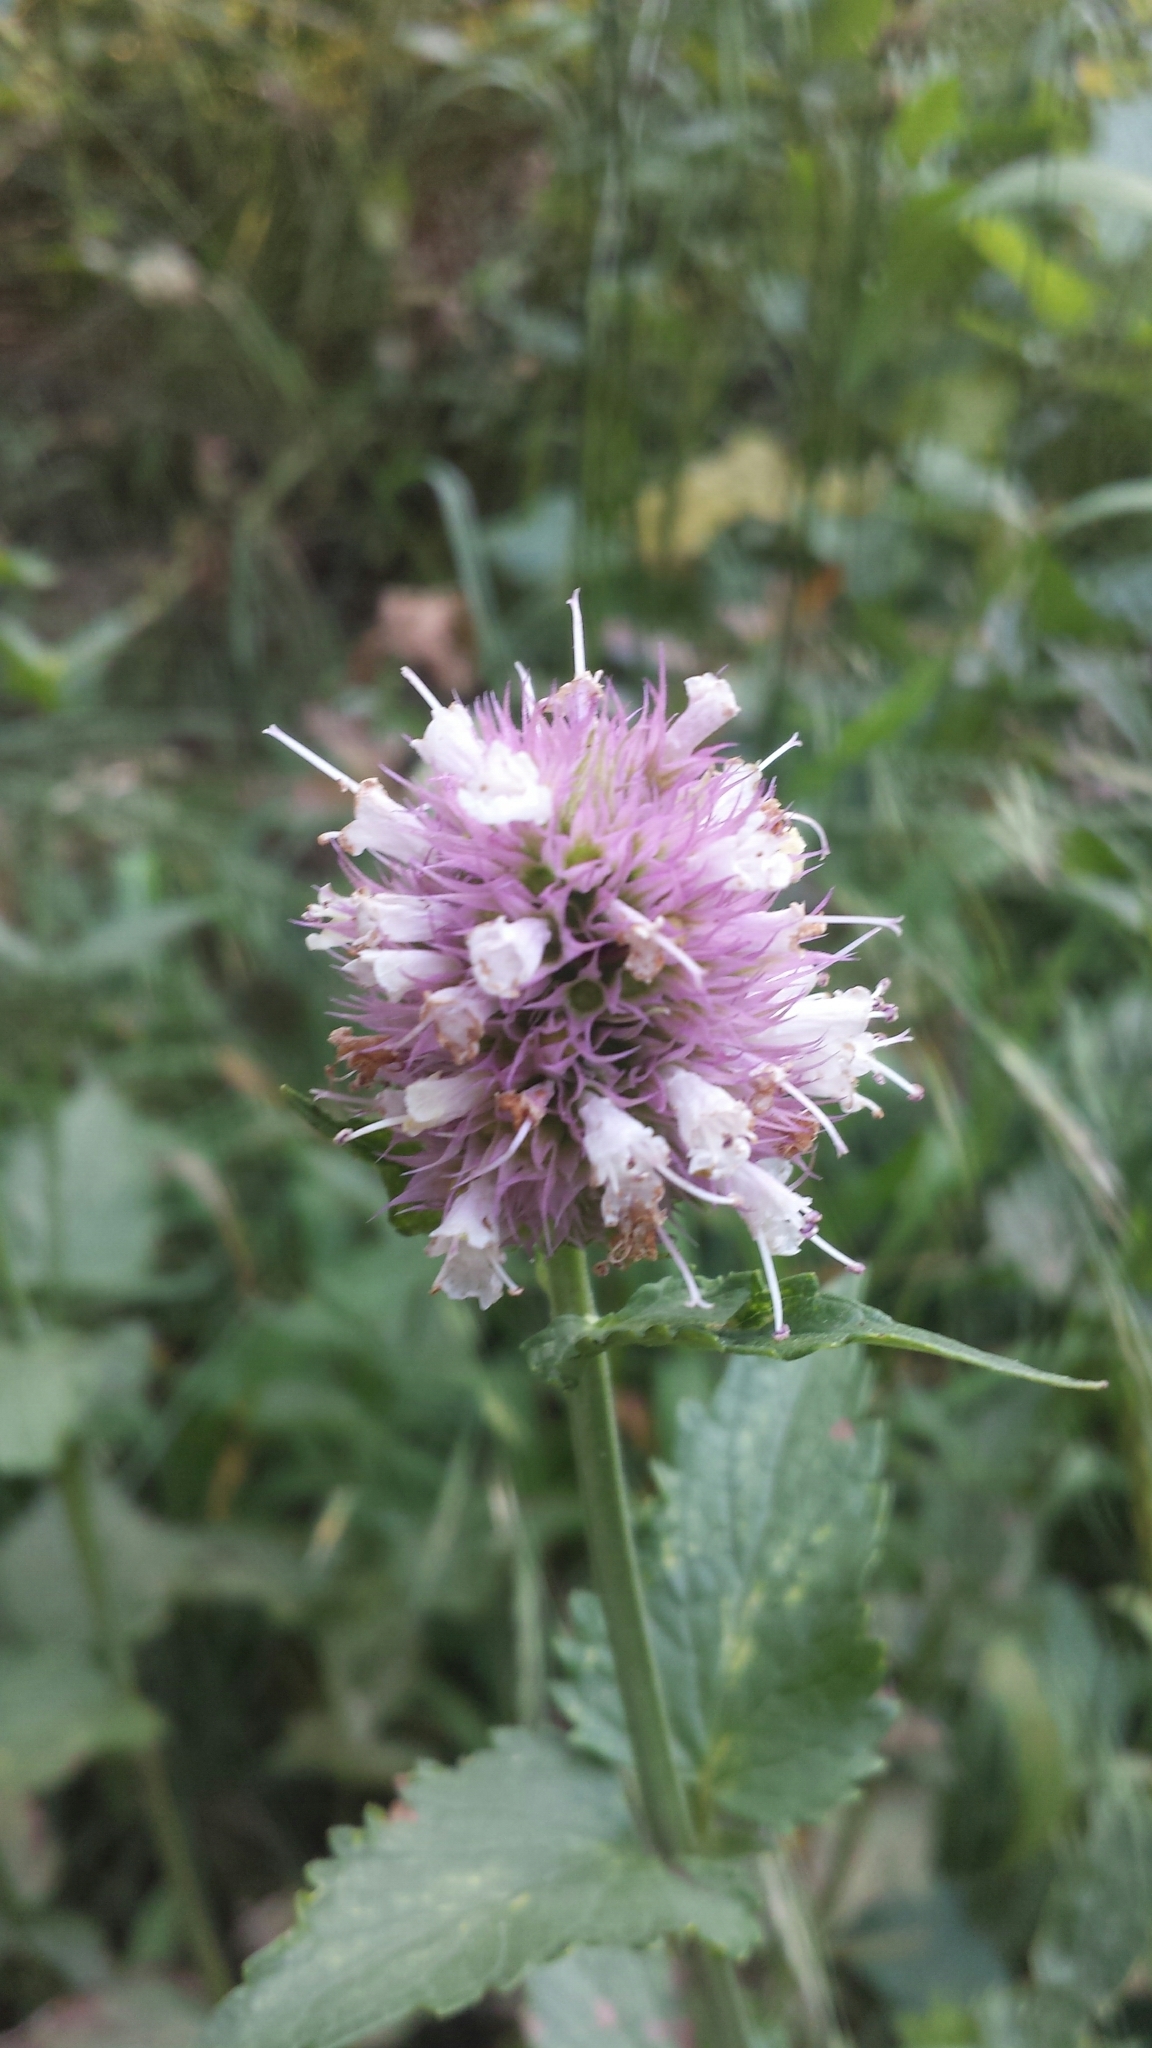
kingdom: Plantae
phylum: Tracheophyta
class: Magnoliopsida
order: Lamiales
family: Lamiaceae
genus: Agastache
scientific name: Agastache urticifolia
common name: Horsemint giant hyssop
